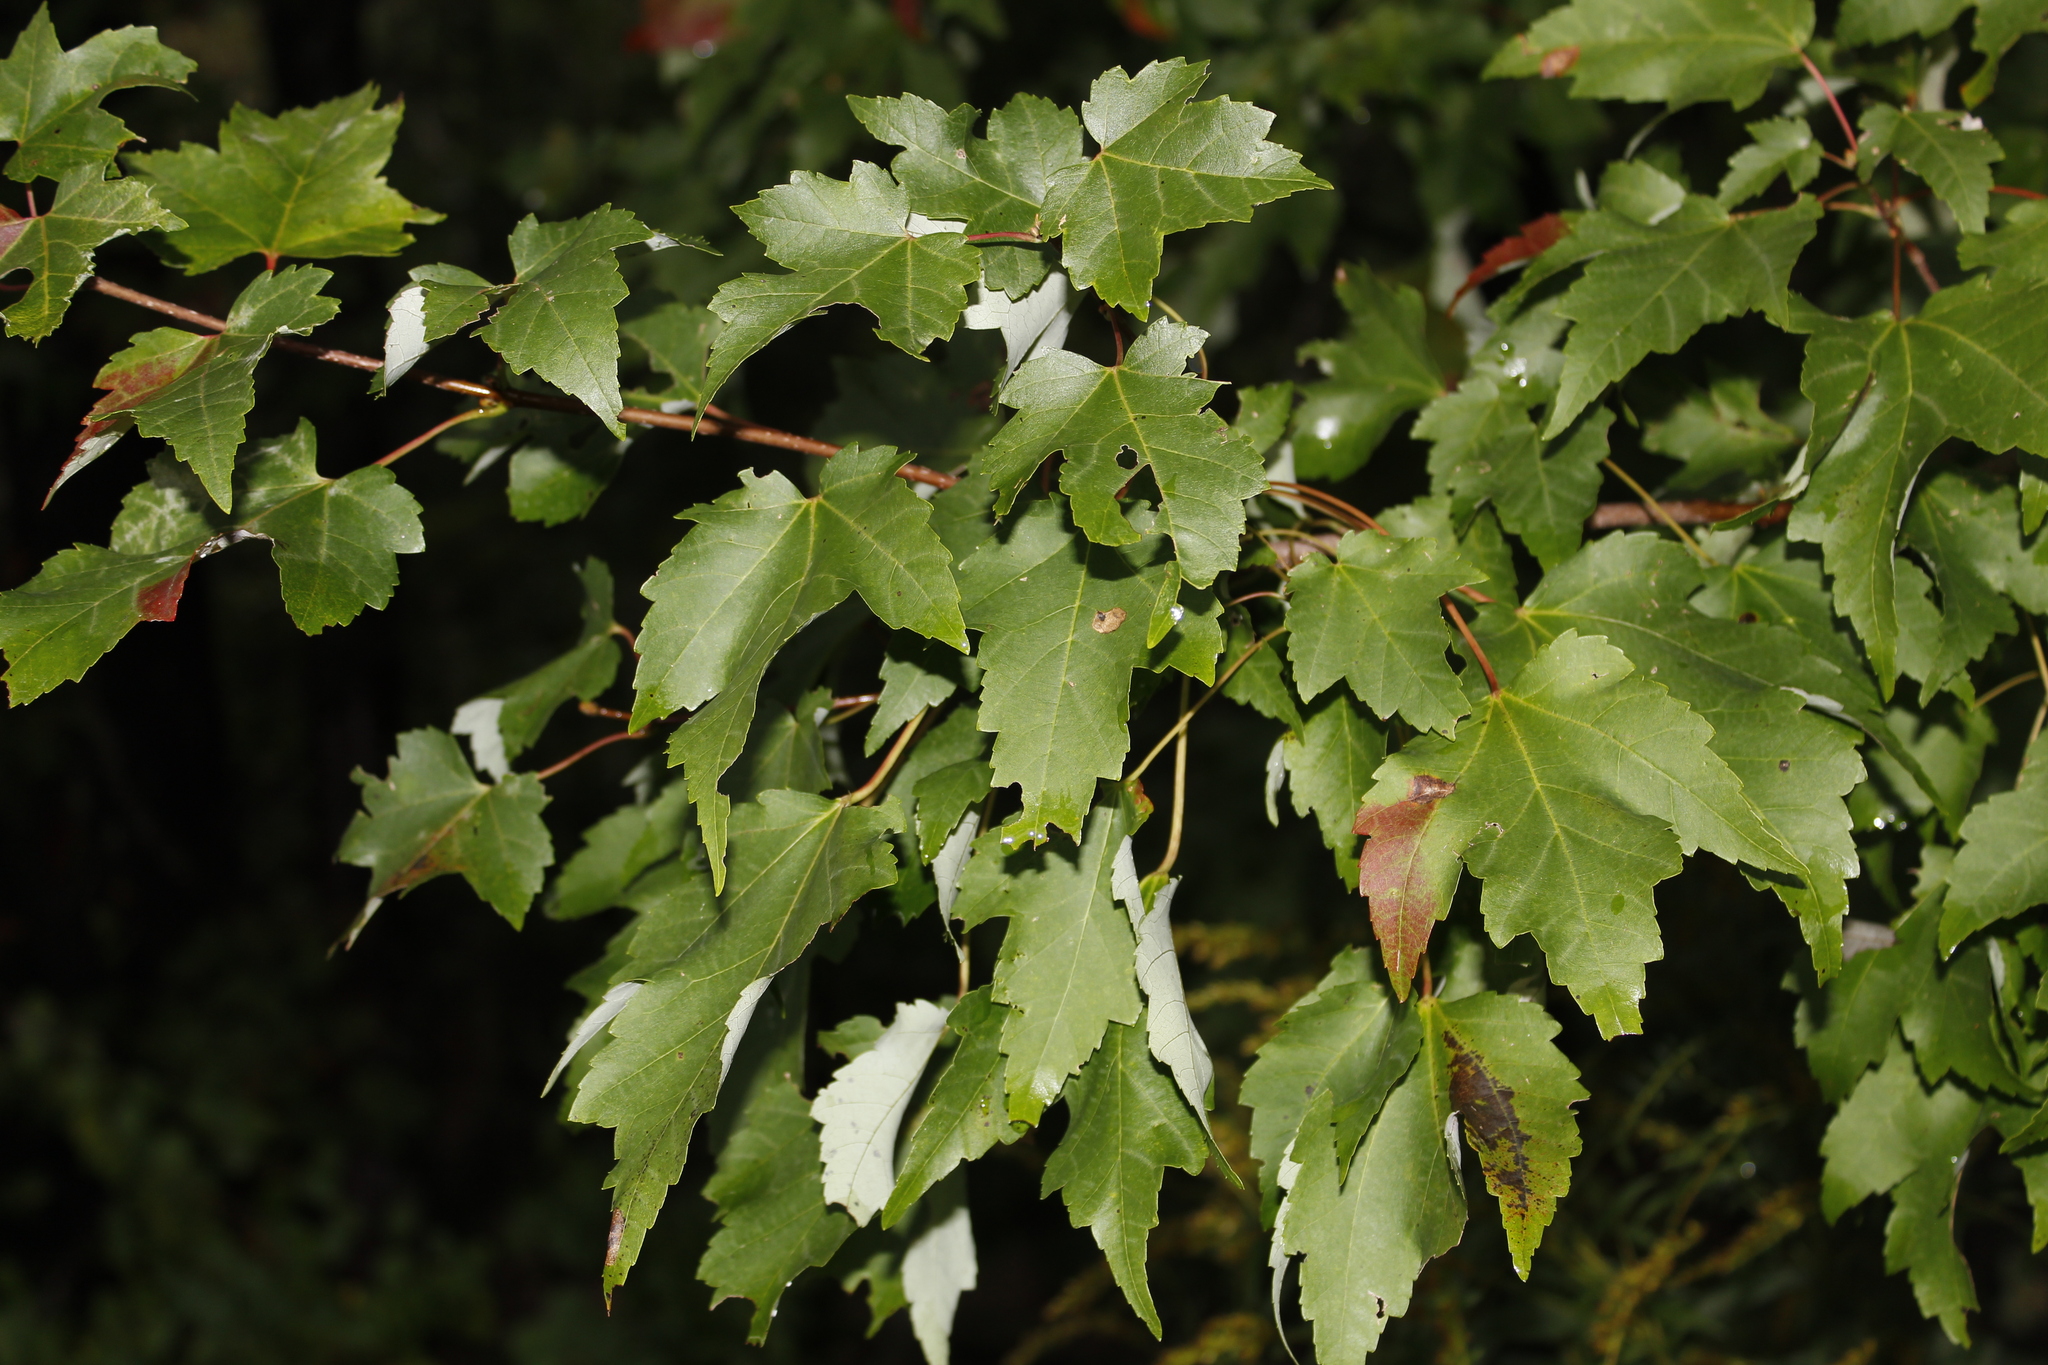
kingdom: Plantae
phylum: Tracheophyta
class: Magnoliopsida
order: Sapindales
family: Sapindaceae
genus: Acer
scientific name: Acer rubrum
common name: Red maple
